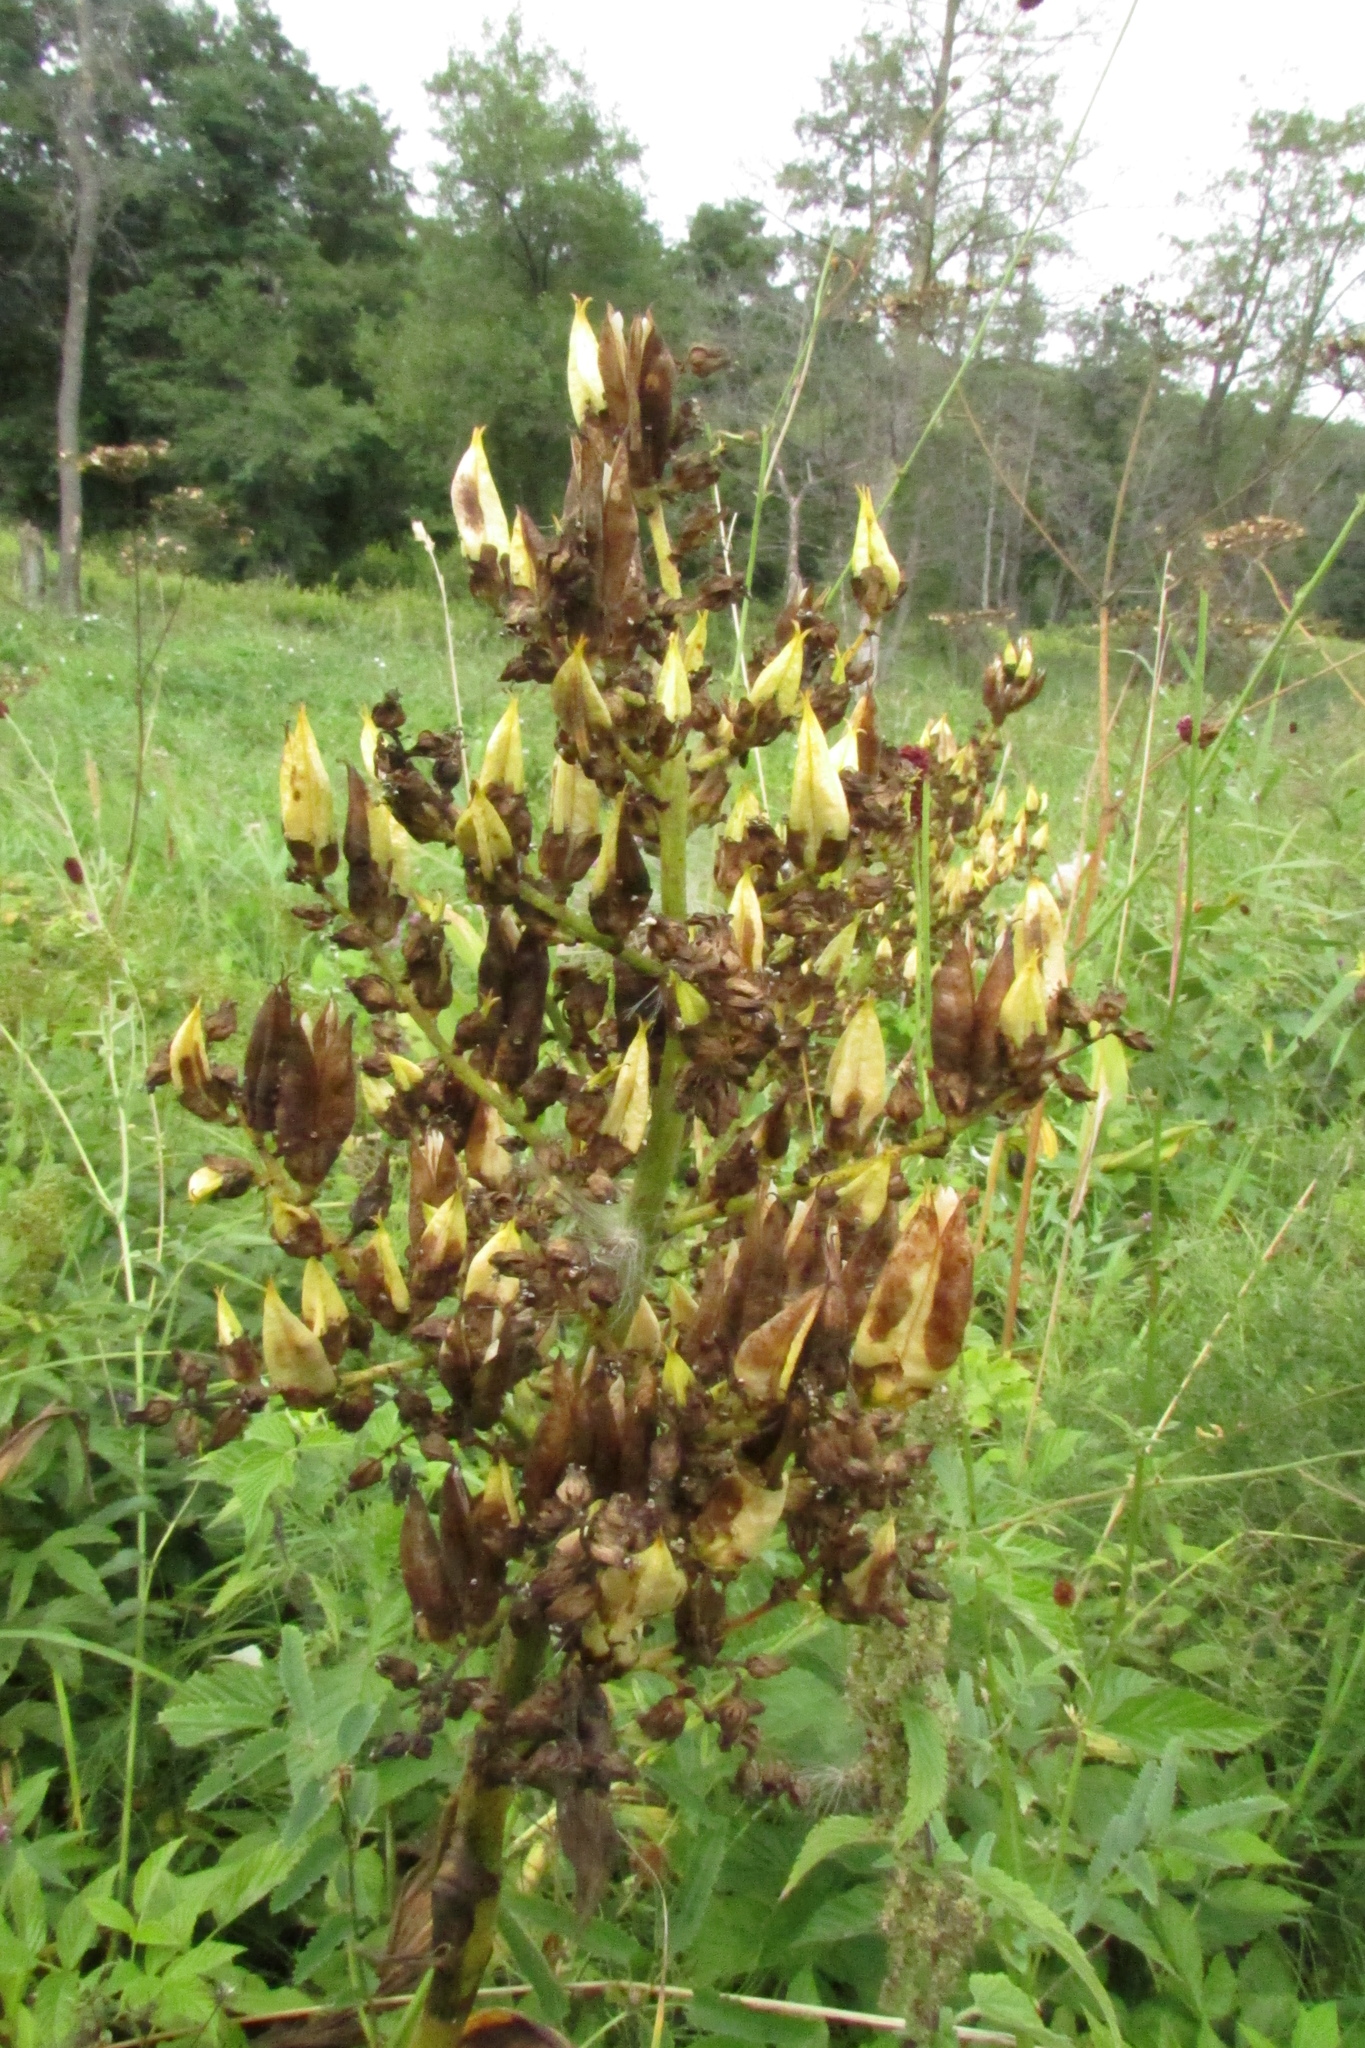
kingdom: Plantae
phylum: Tracheophyta
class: Liliopsida
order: Liliales
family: Melanthiaceae
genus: Veratrum
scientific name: Veratrum lobelianum
